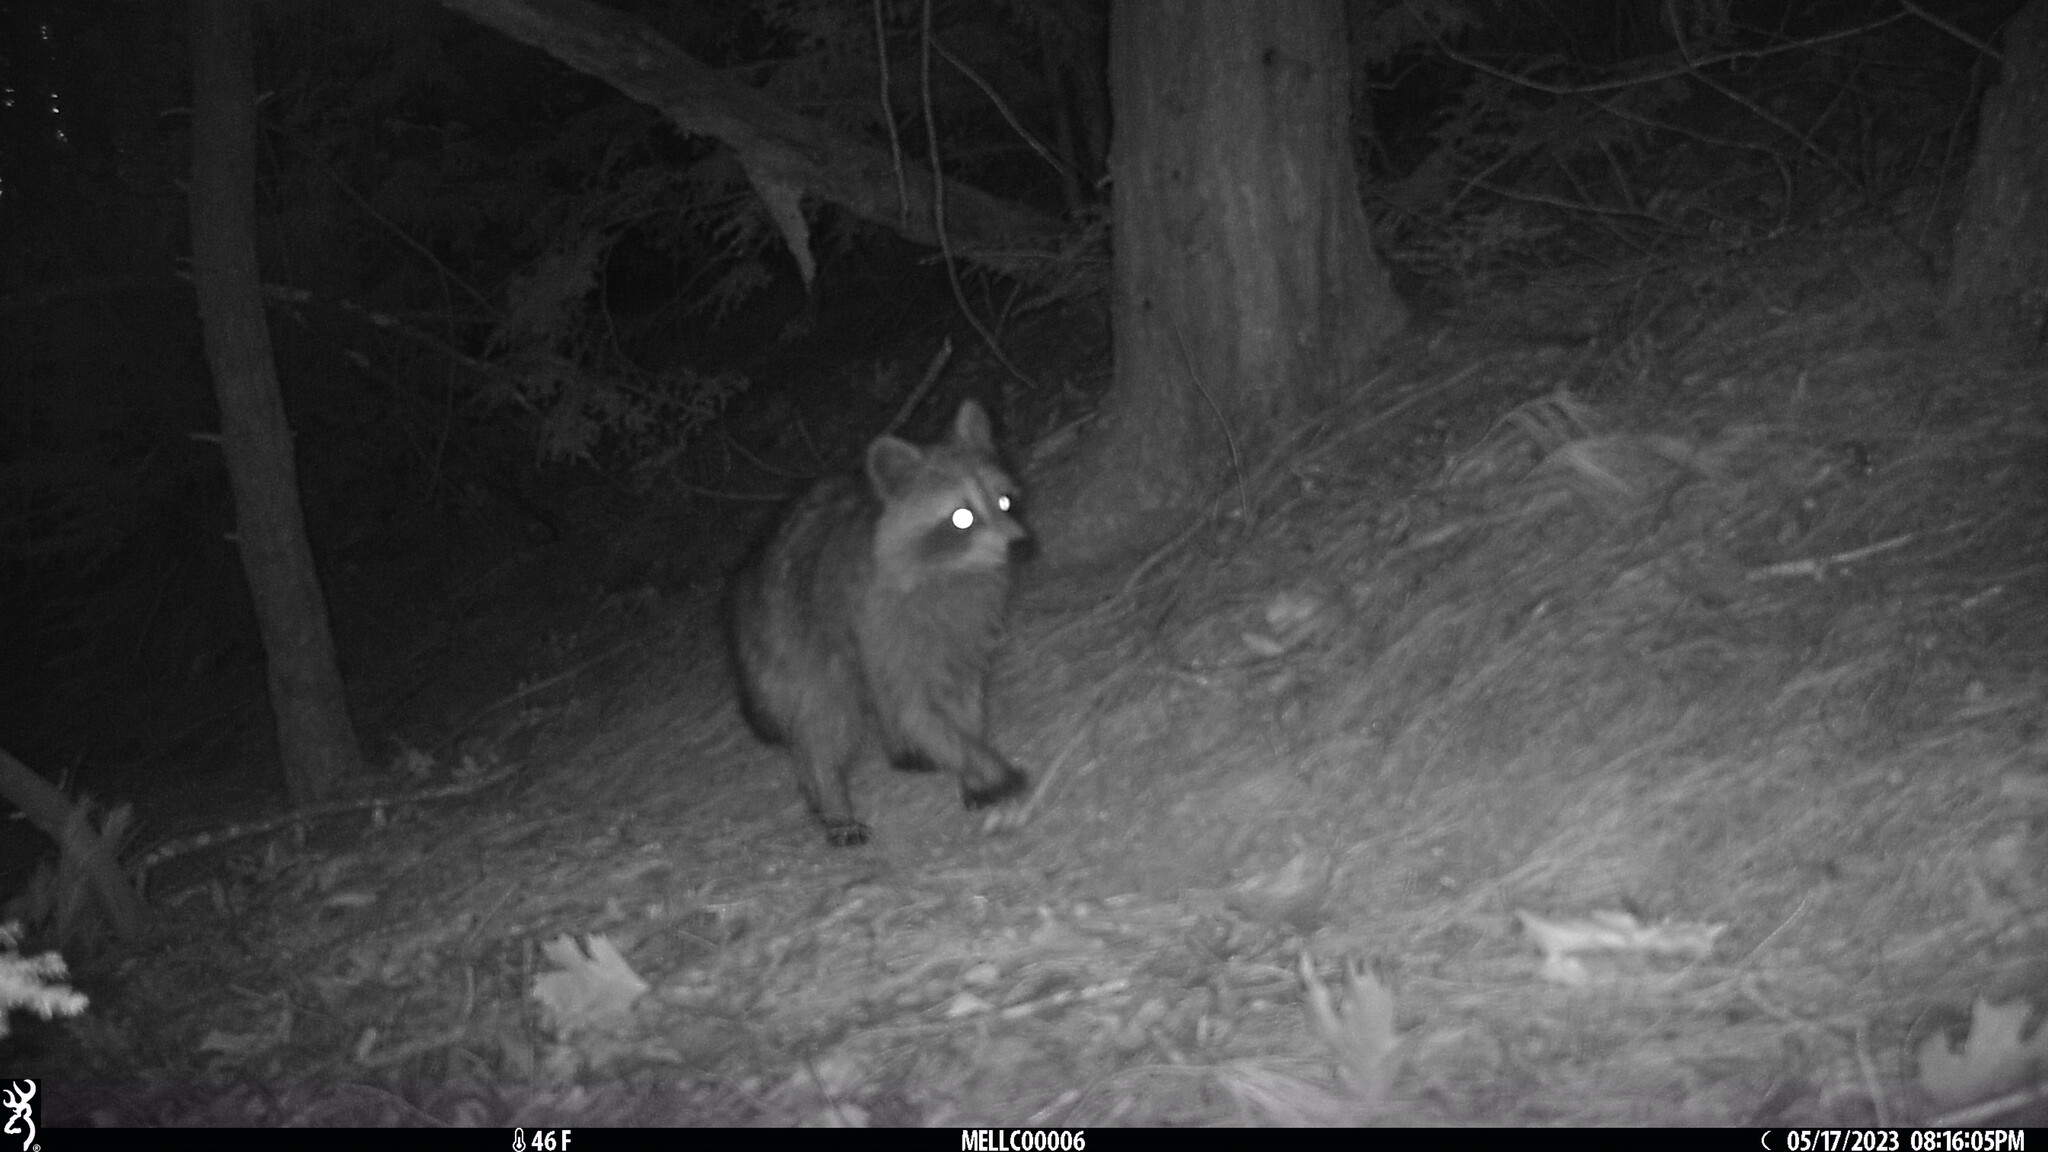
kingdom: Animalia
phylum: Chordata
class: Mammalia
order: Carnivora
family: Procyonidae
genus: Procyon
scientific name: Procyon lotor
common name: Raccoon
